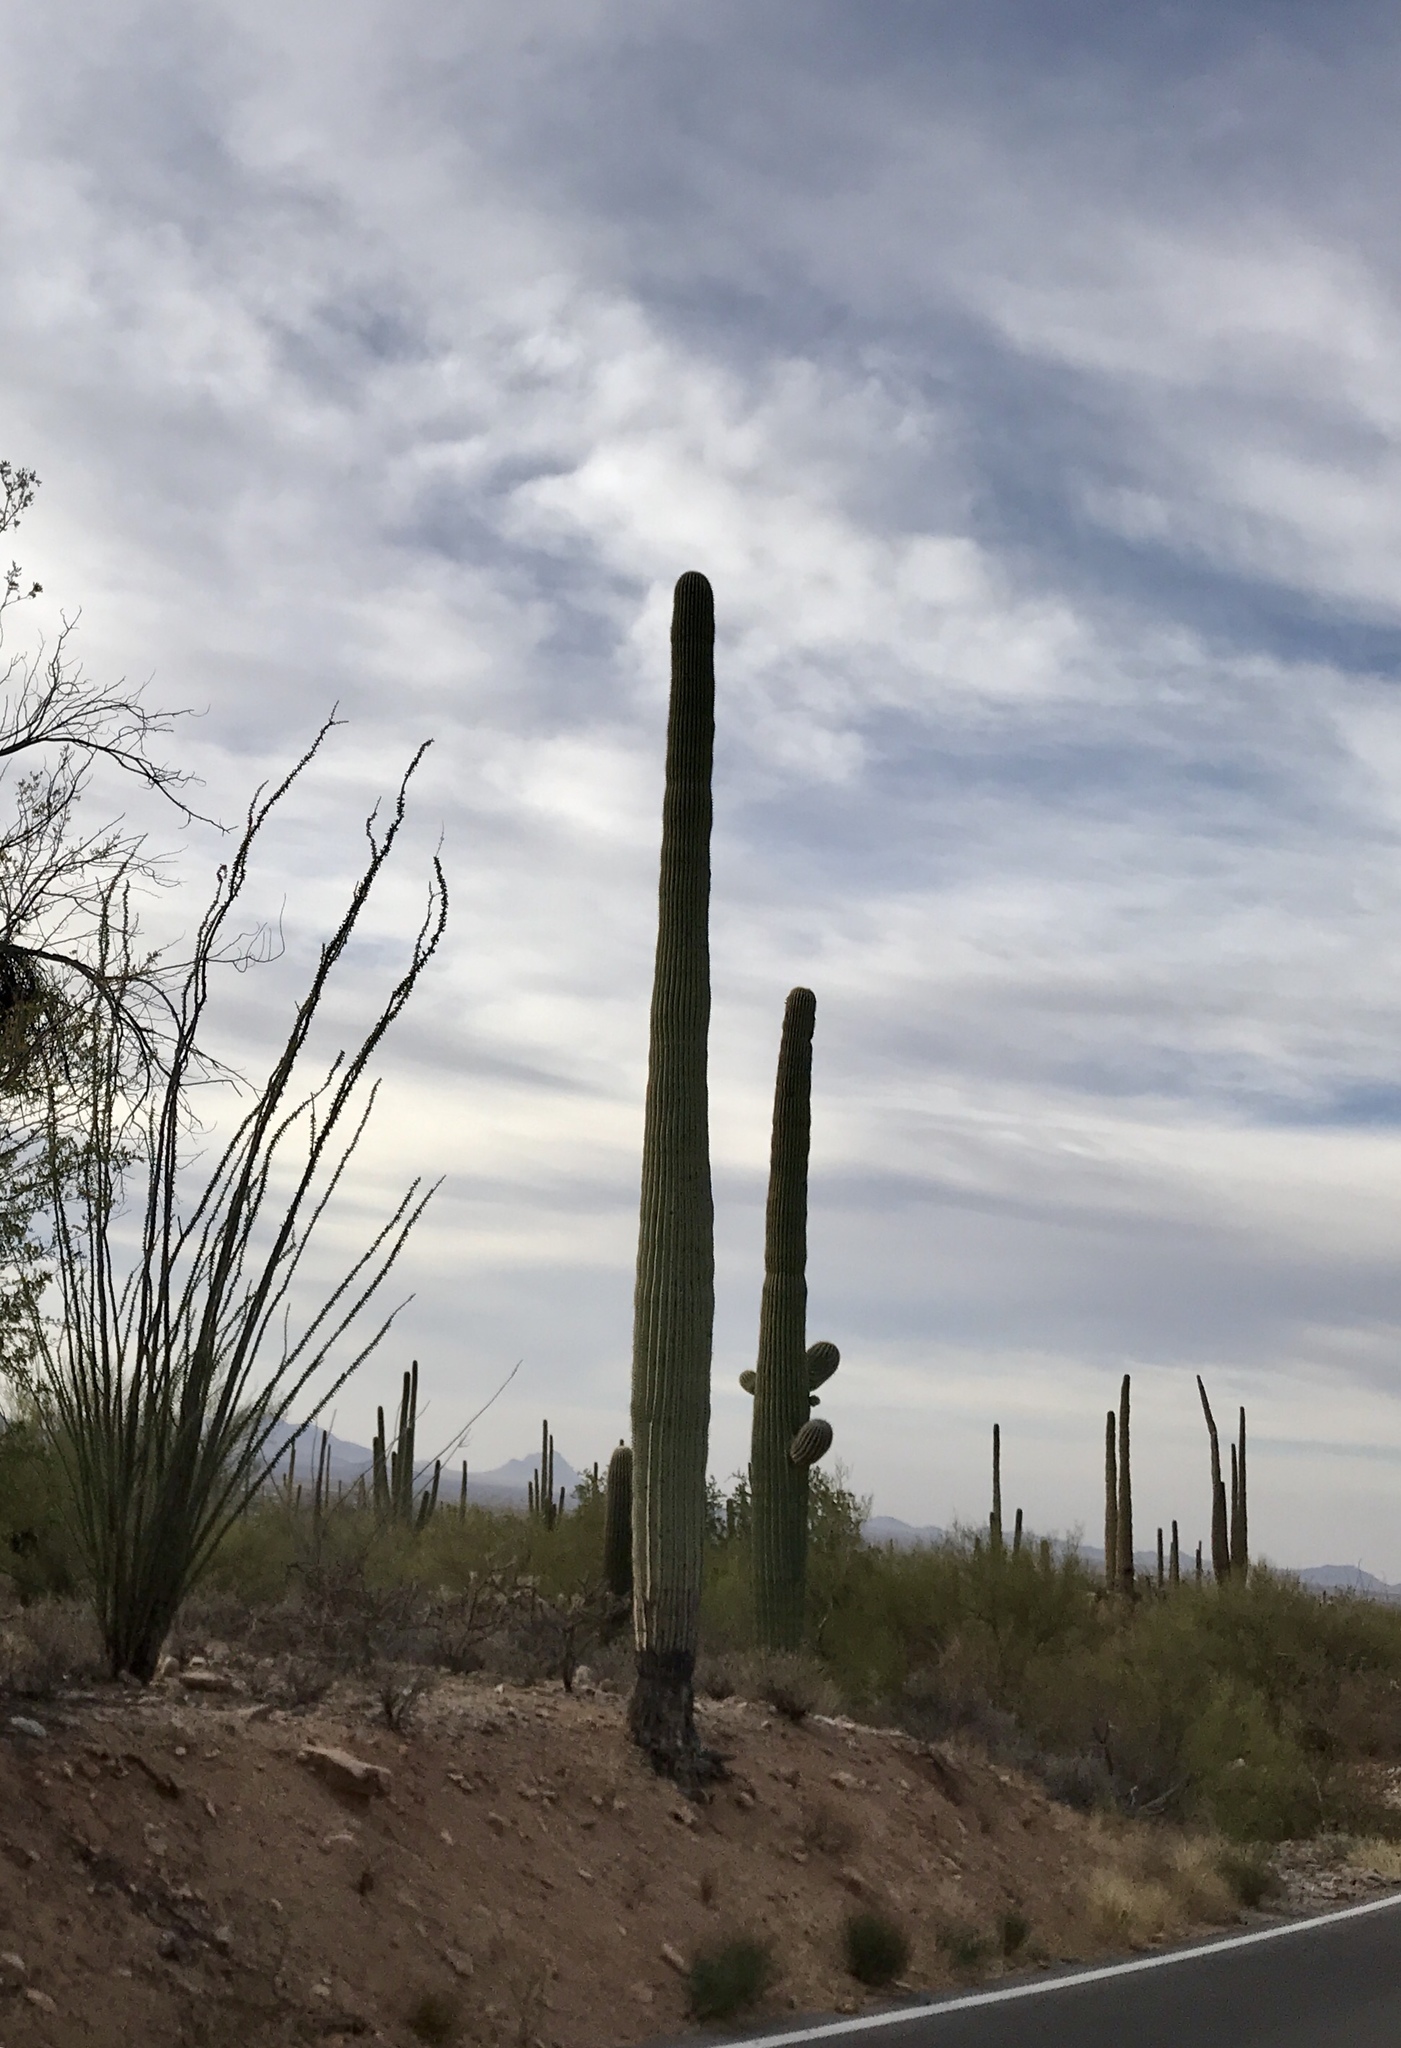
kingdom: Plantae
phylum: Tracheophyta
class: Magnoliopsida
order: Caryophyllales
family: Cactaceae
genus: Carnegiea
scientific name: Carnegiea gigantea
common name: Saguaro
